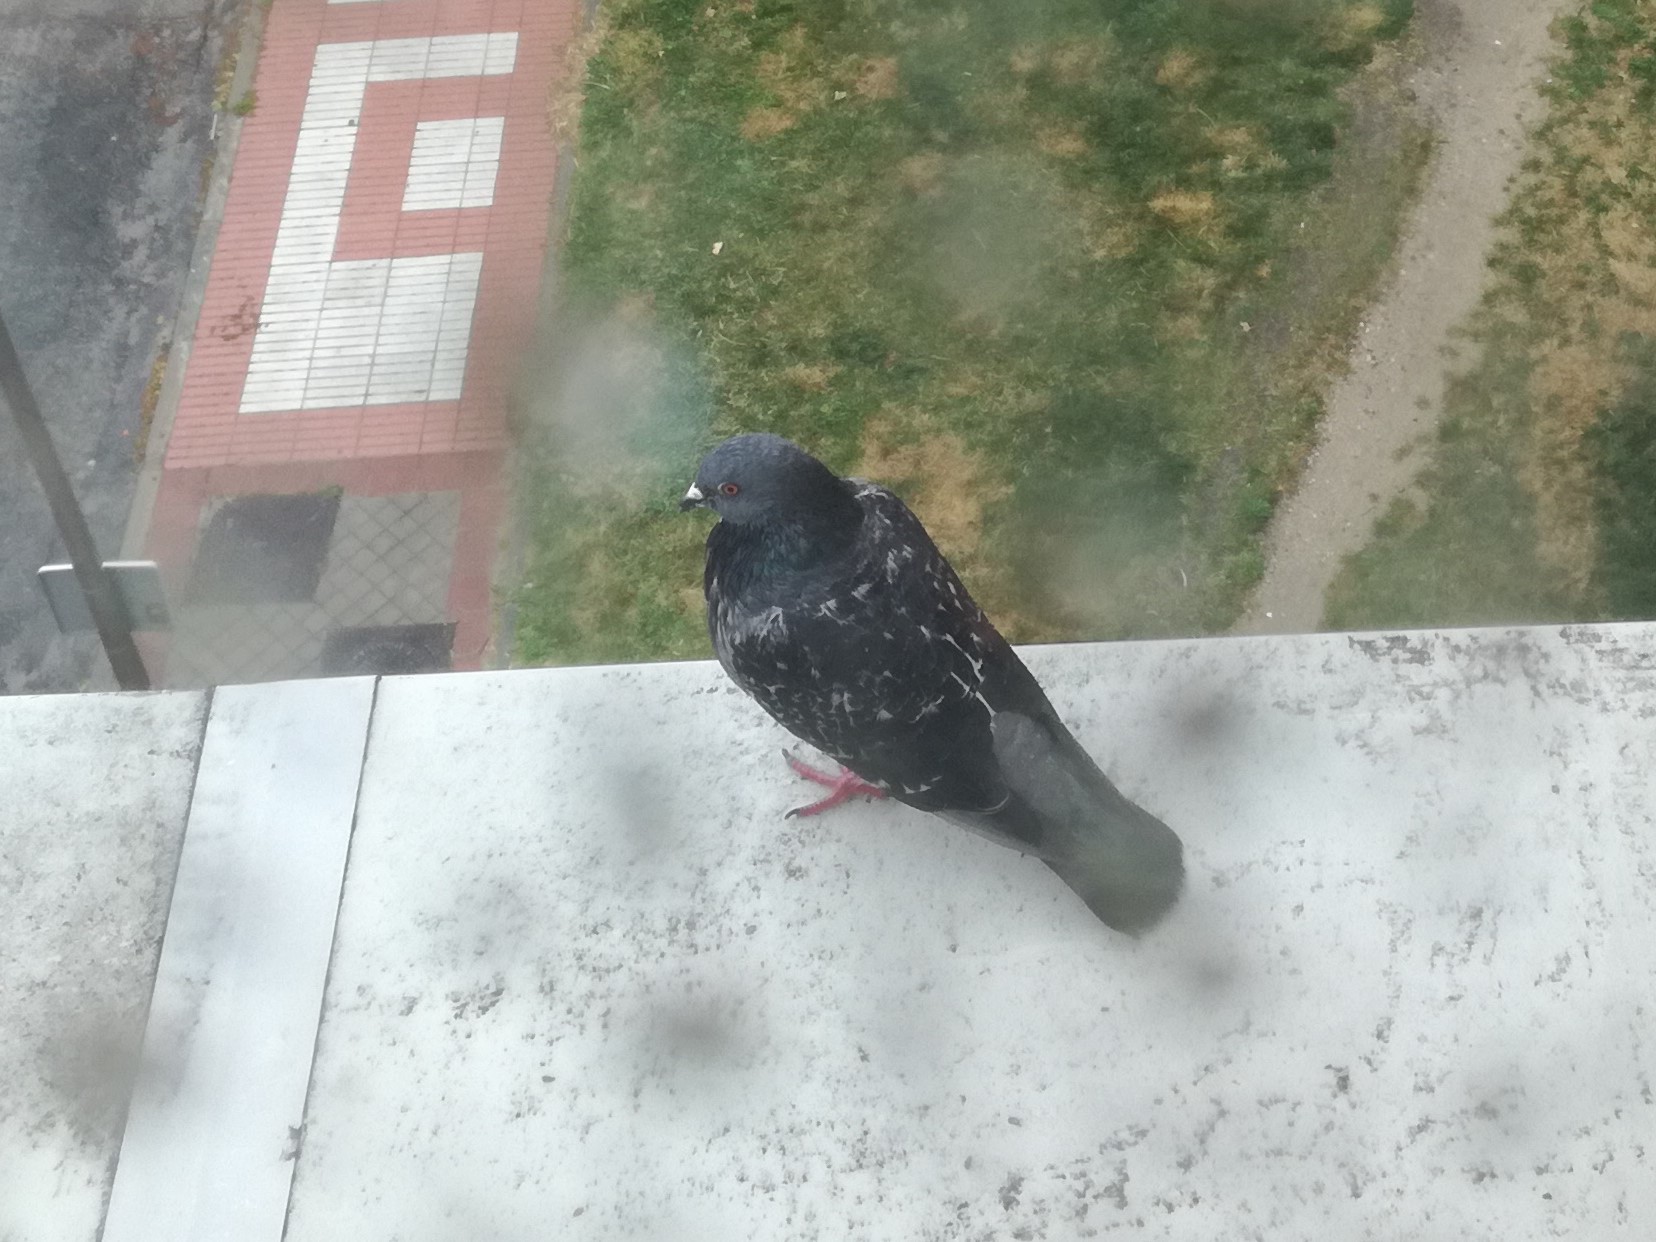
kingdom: Animalia
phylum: Chordata
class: Aves
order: Columbiformes
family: Columbidae
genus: Columba
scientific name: Columba livia
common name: Rock pigeon
